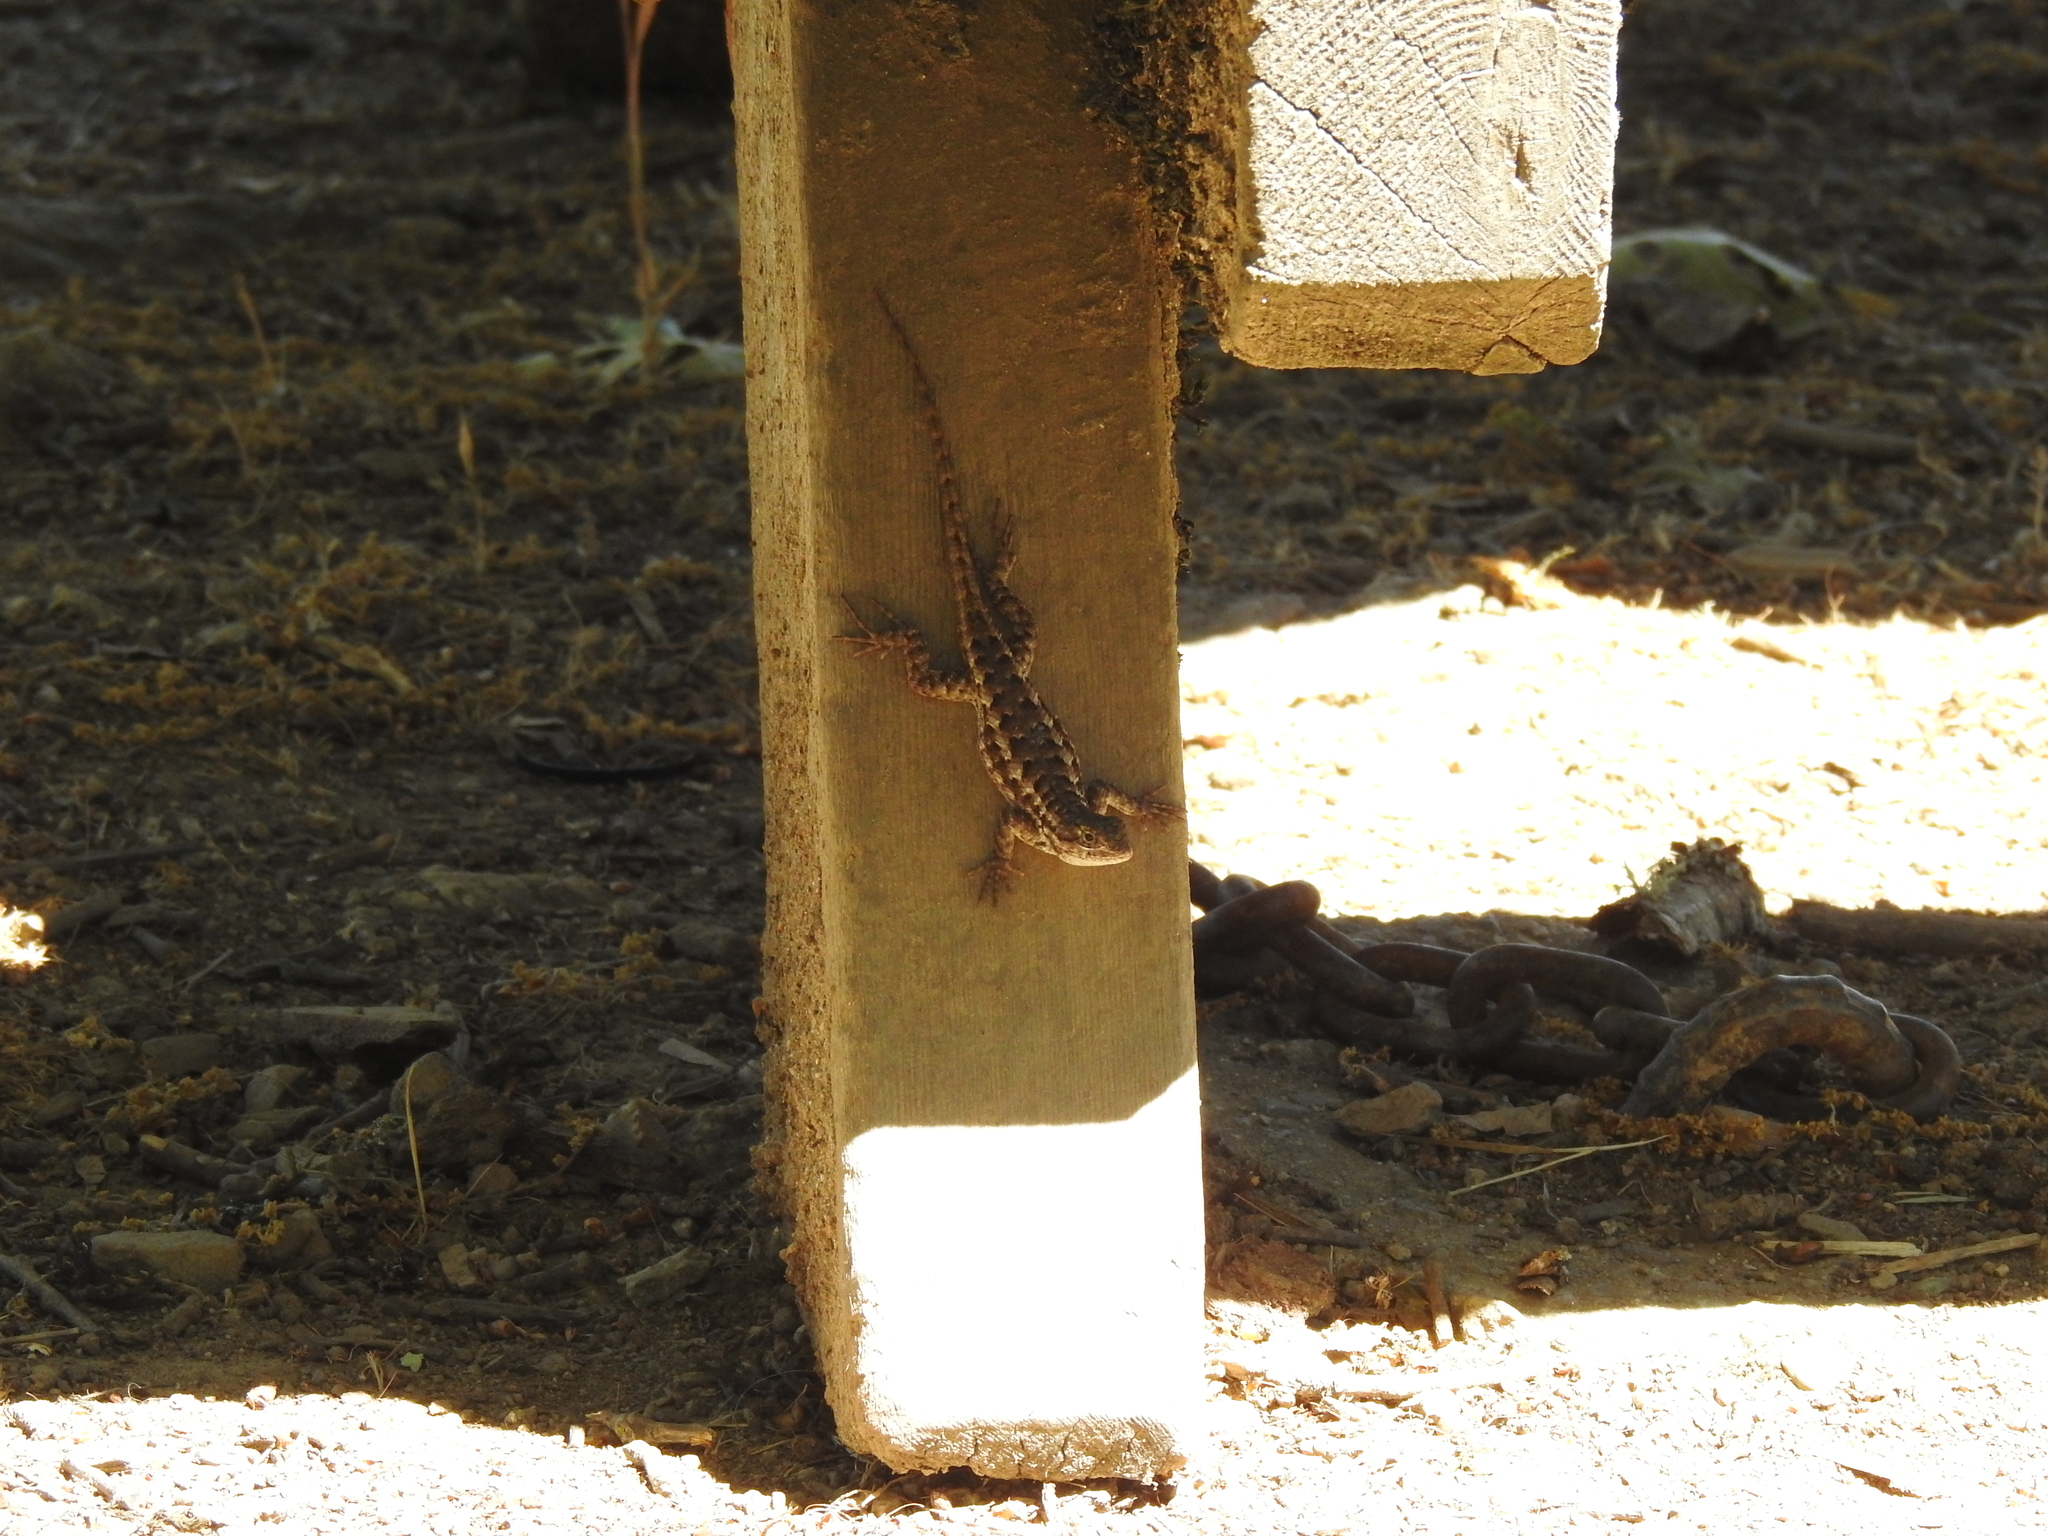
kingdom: Animalia
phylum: Chordata
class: Squamata
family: Phrynosomatidae
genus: Sceloporus
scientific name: Sceloporus occidentalis
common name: Western fence lizard
